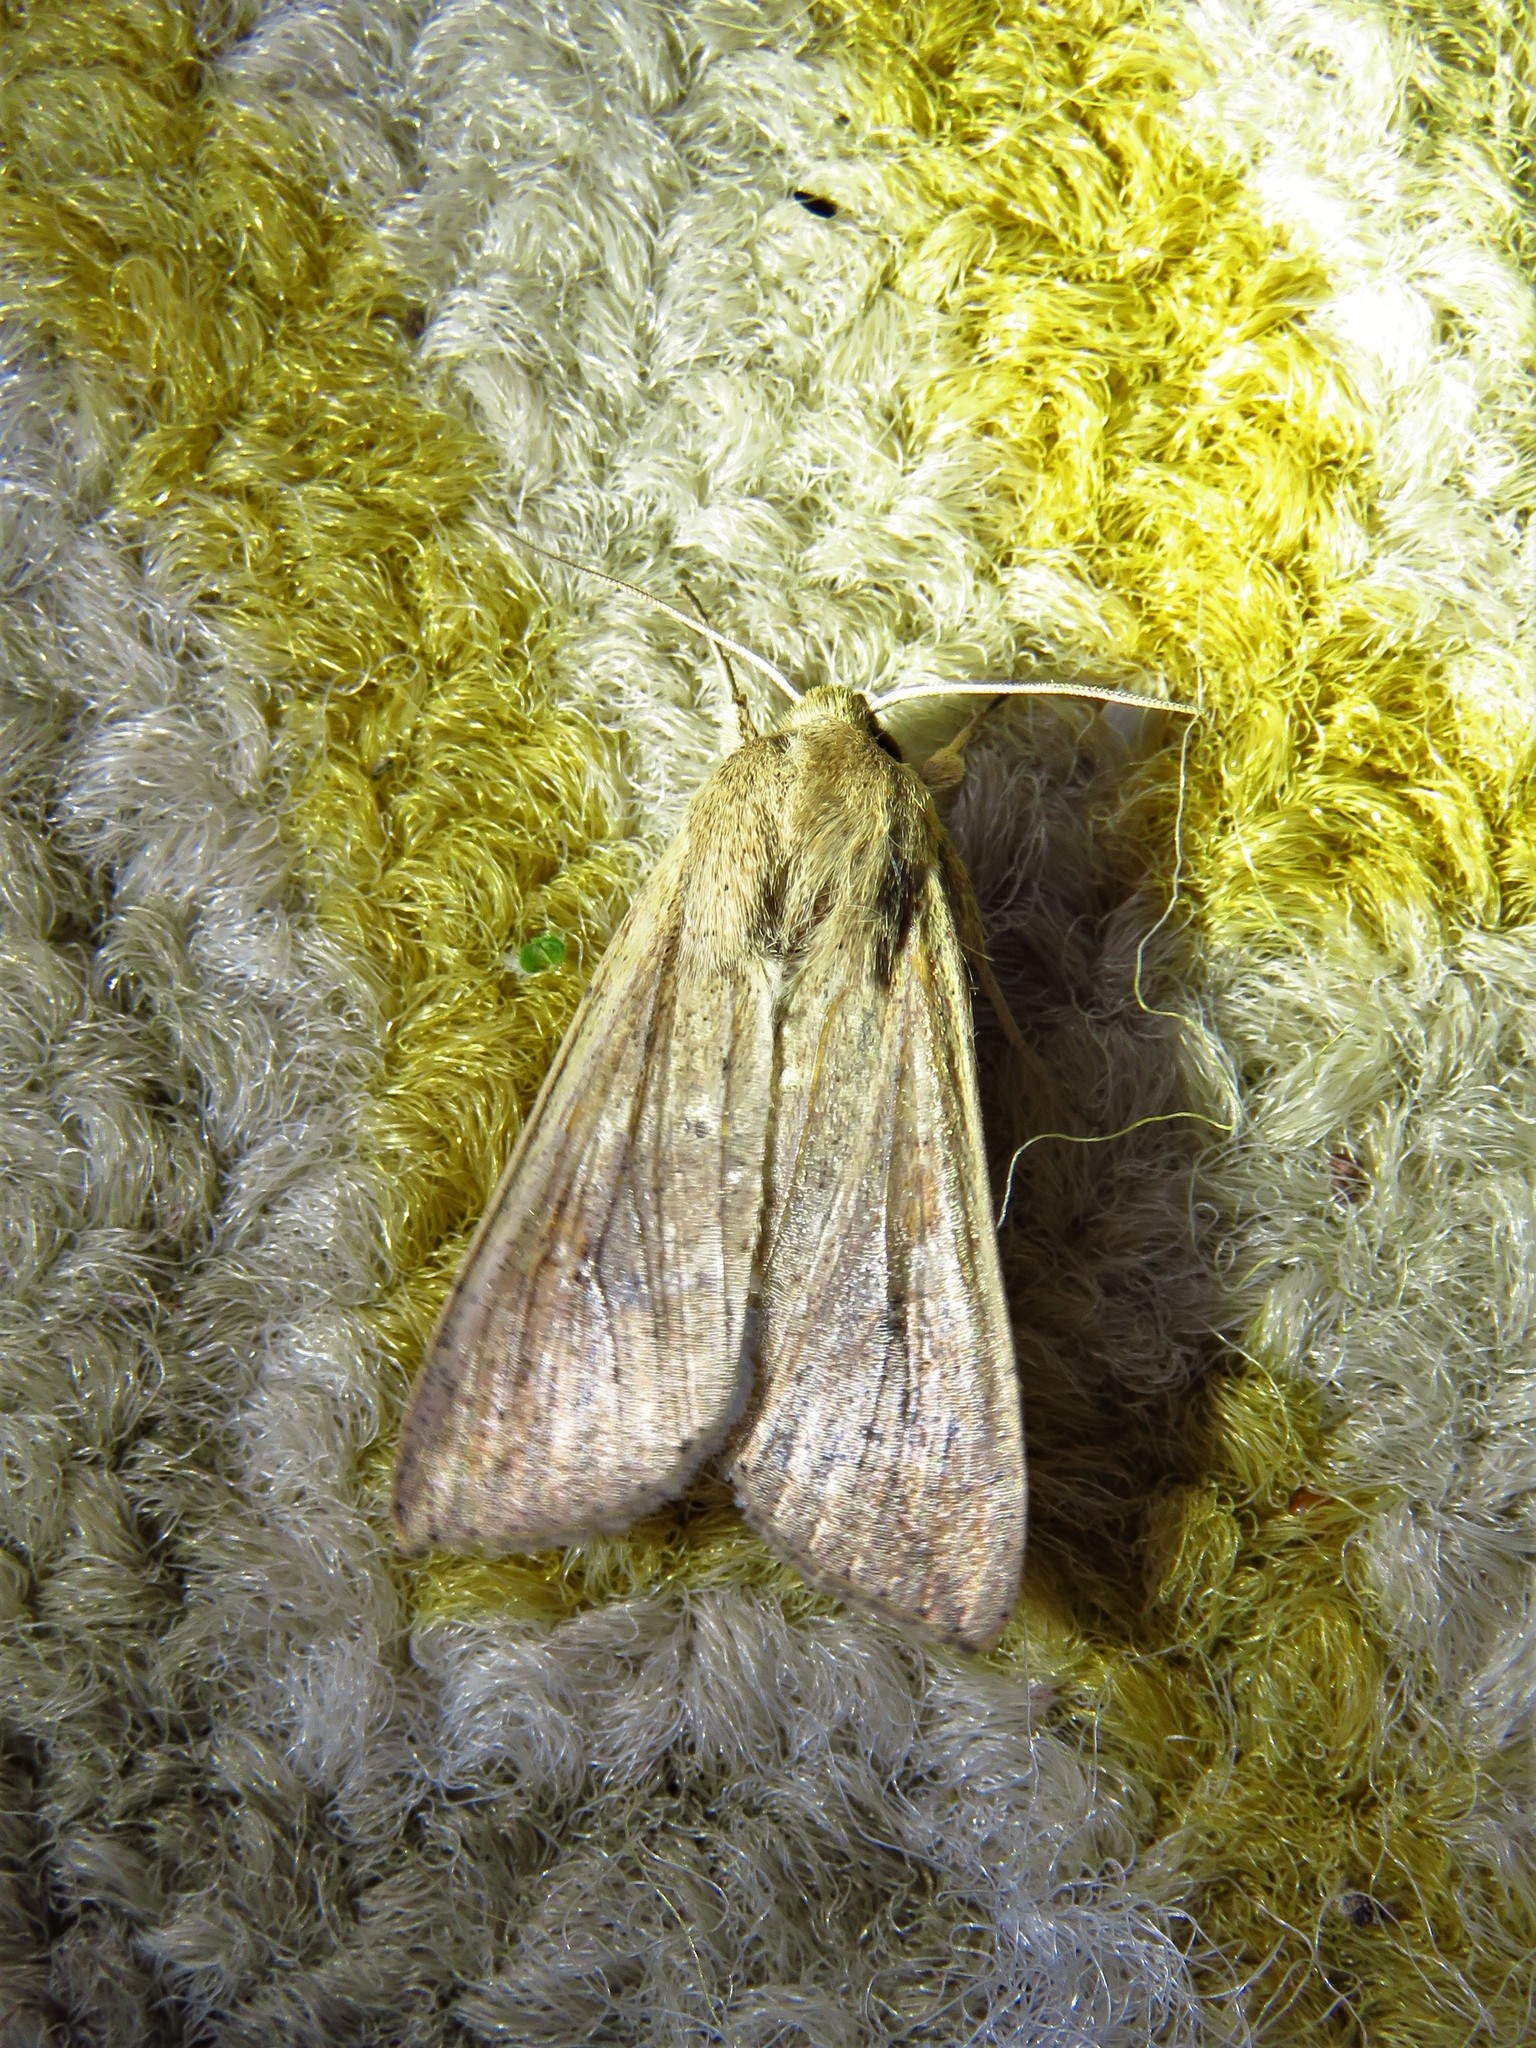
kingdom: Animalia
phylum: Arthropoda
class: Insecta
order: Lepidoptera
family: Noctuidae
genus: Mythimna
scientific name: Mythimna unipuncta
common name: White-speck
